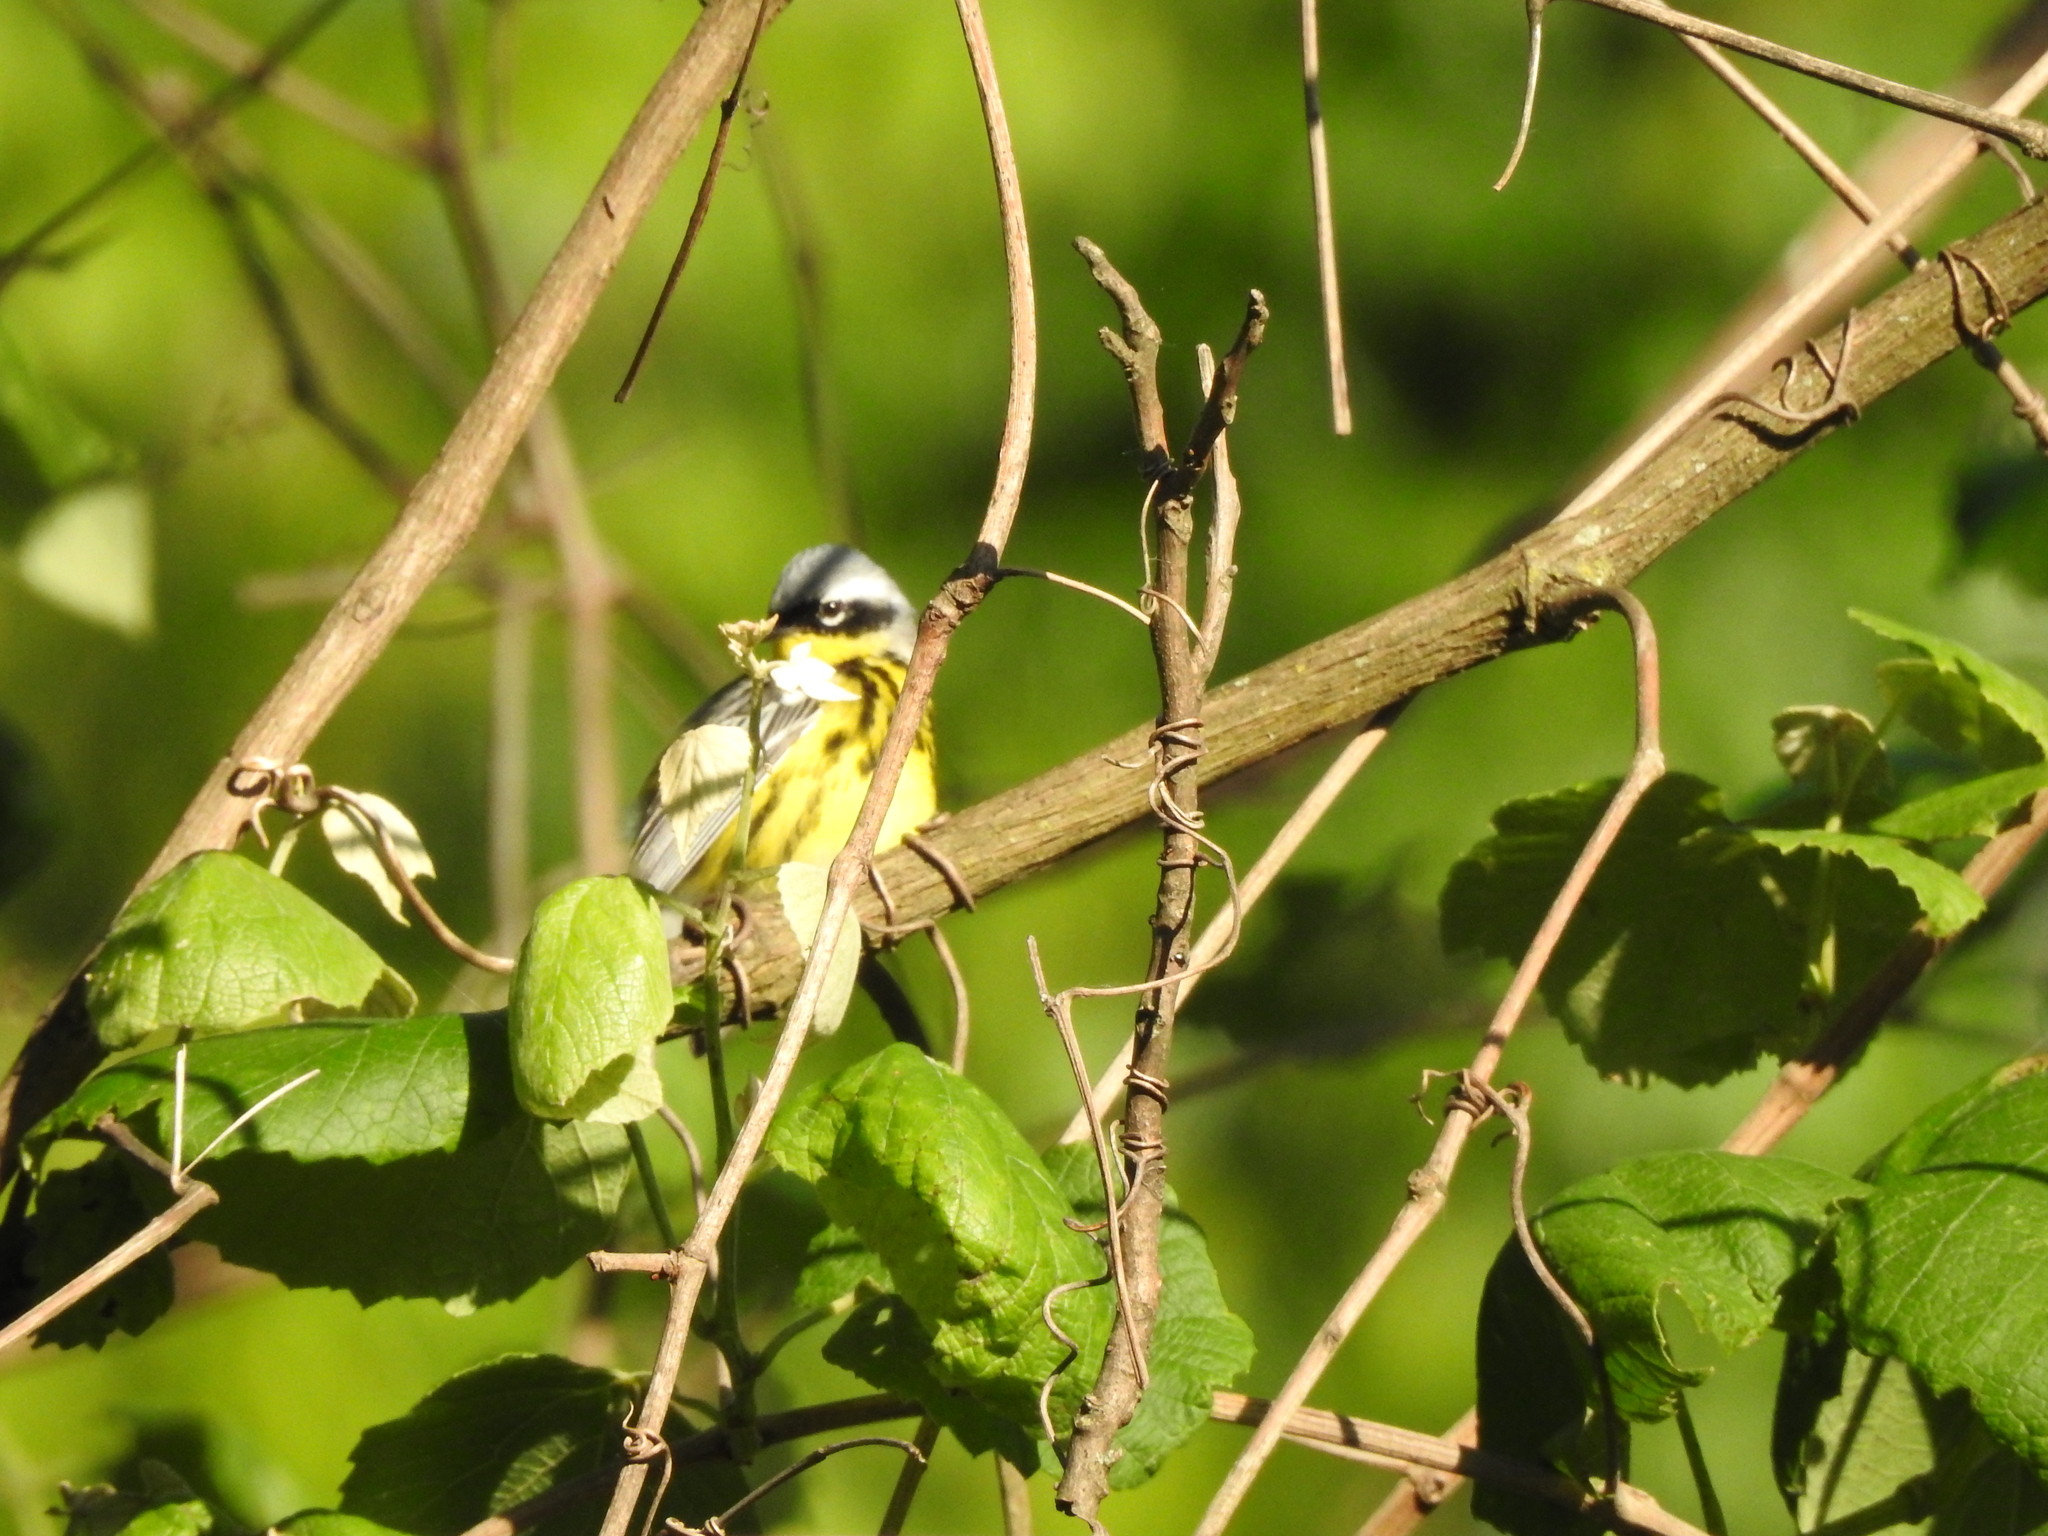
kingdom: Animalia
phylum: Chordata
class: Aves
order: Passeriformes
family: Parulidae
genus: Setophaga
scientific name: Setophaga magnolia
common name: Magnolia warbler
